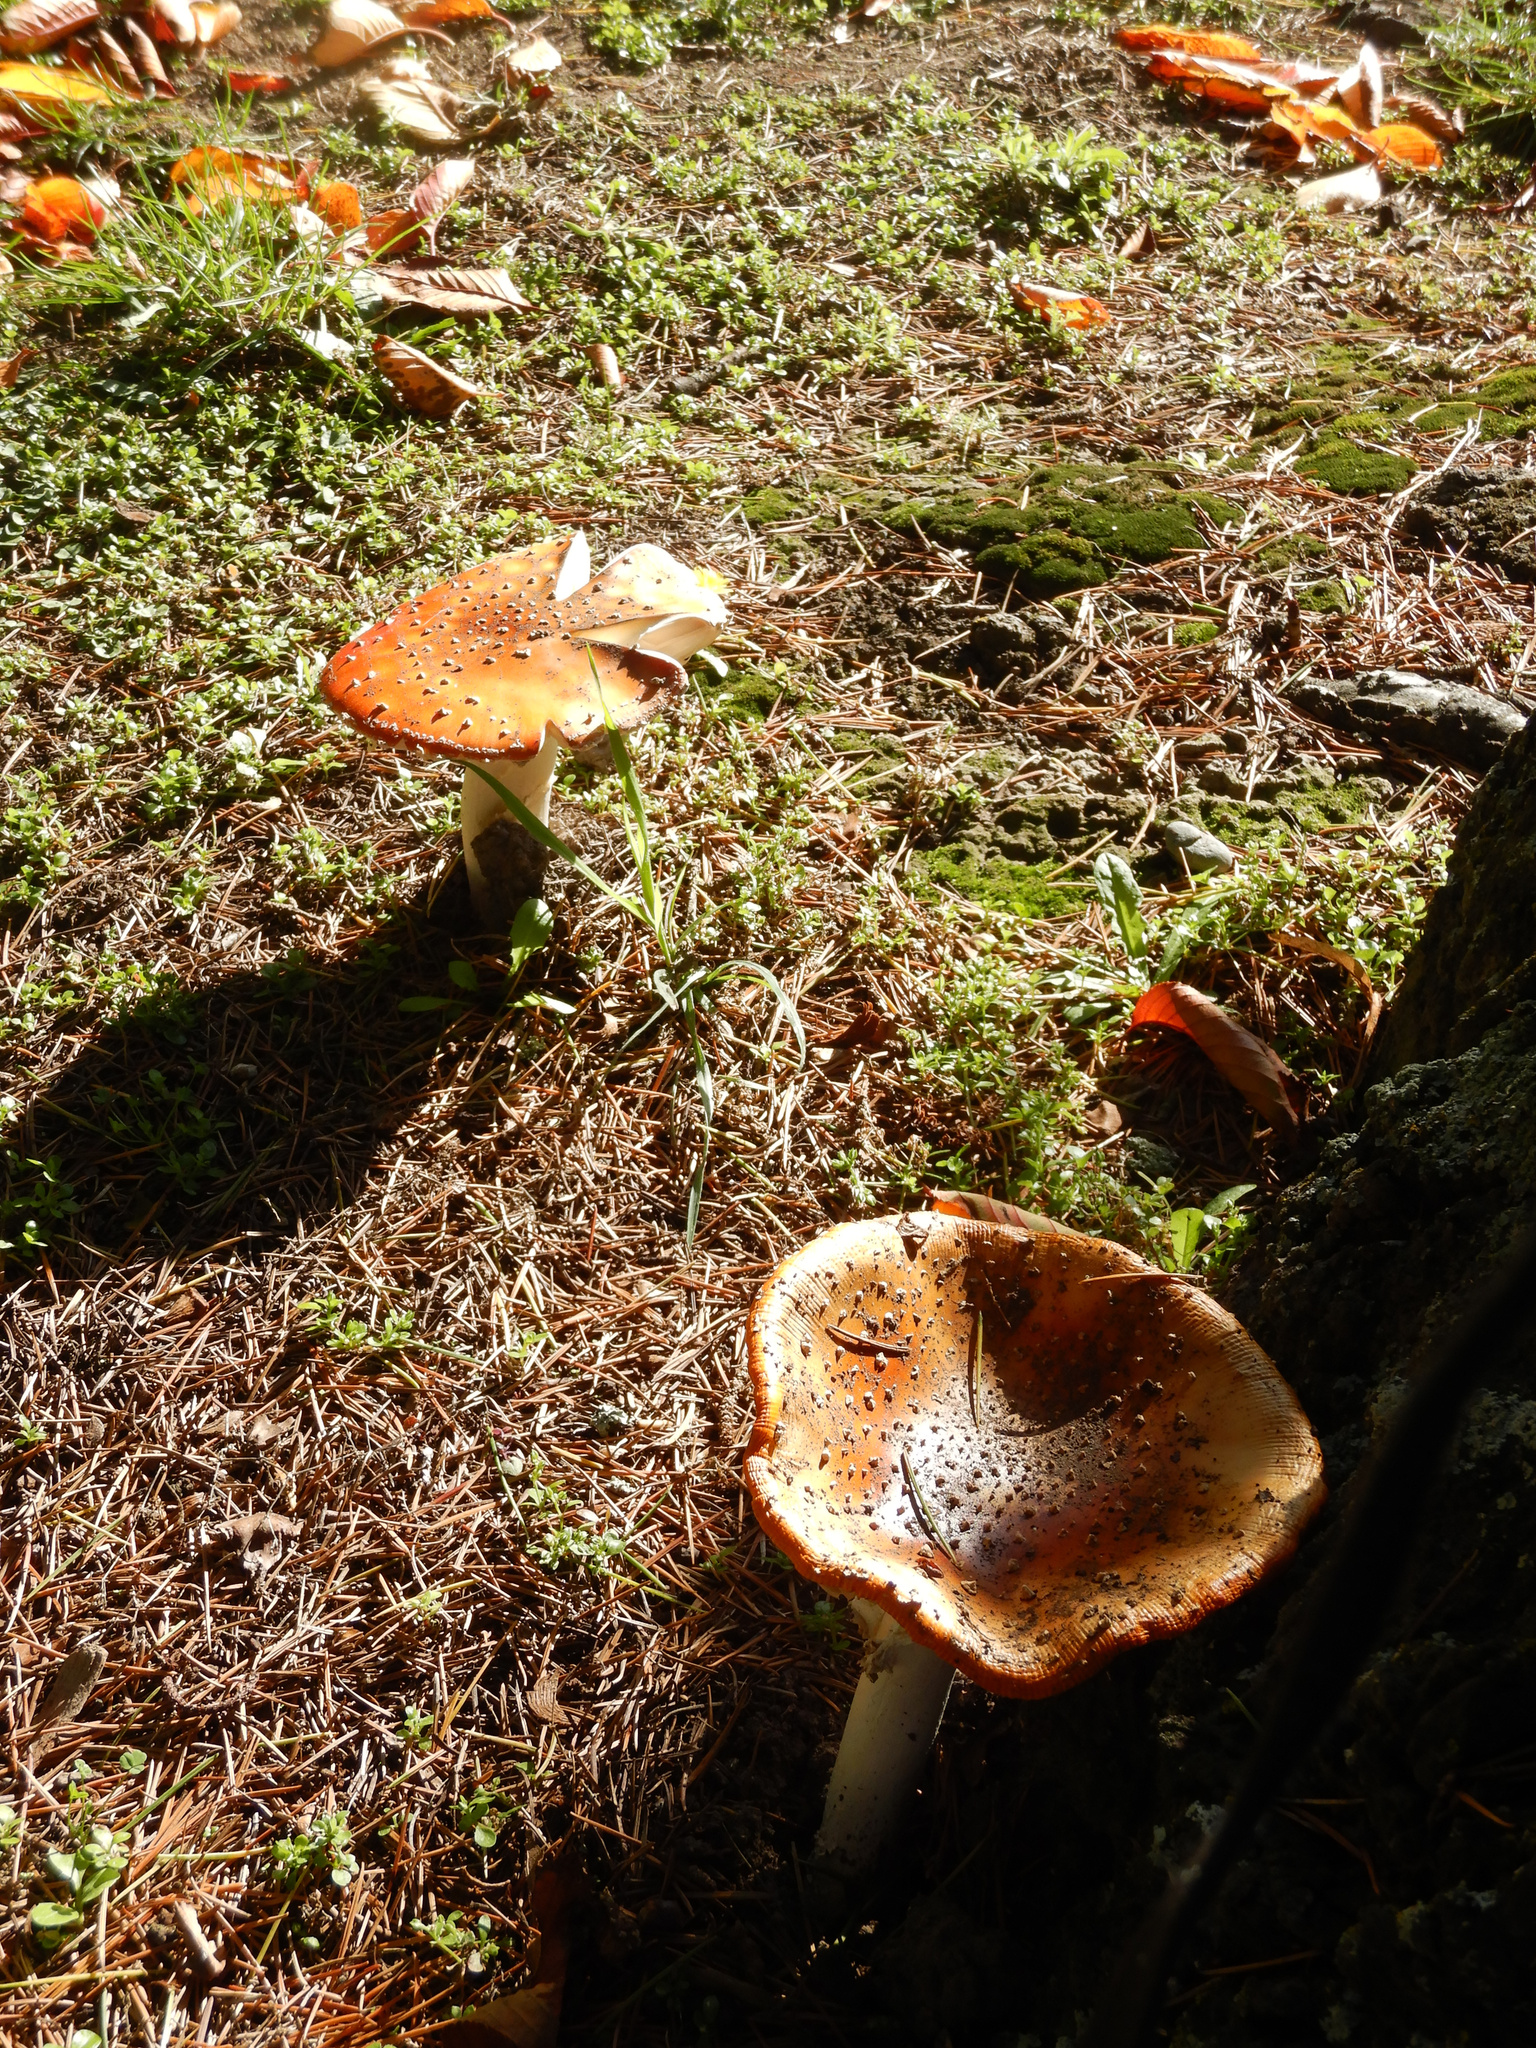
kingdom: Fungi
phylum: Basidiomycota
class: Agaricomycetes
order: Agaricales
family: Amanitaceae
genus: Amanita
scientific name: Amanita muscaria
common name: Fly agaric
